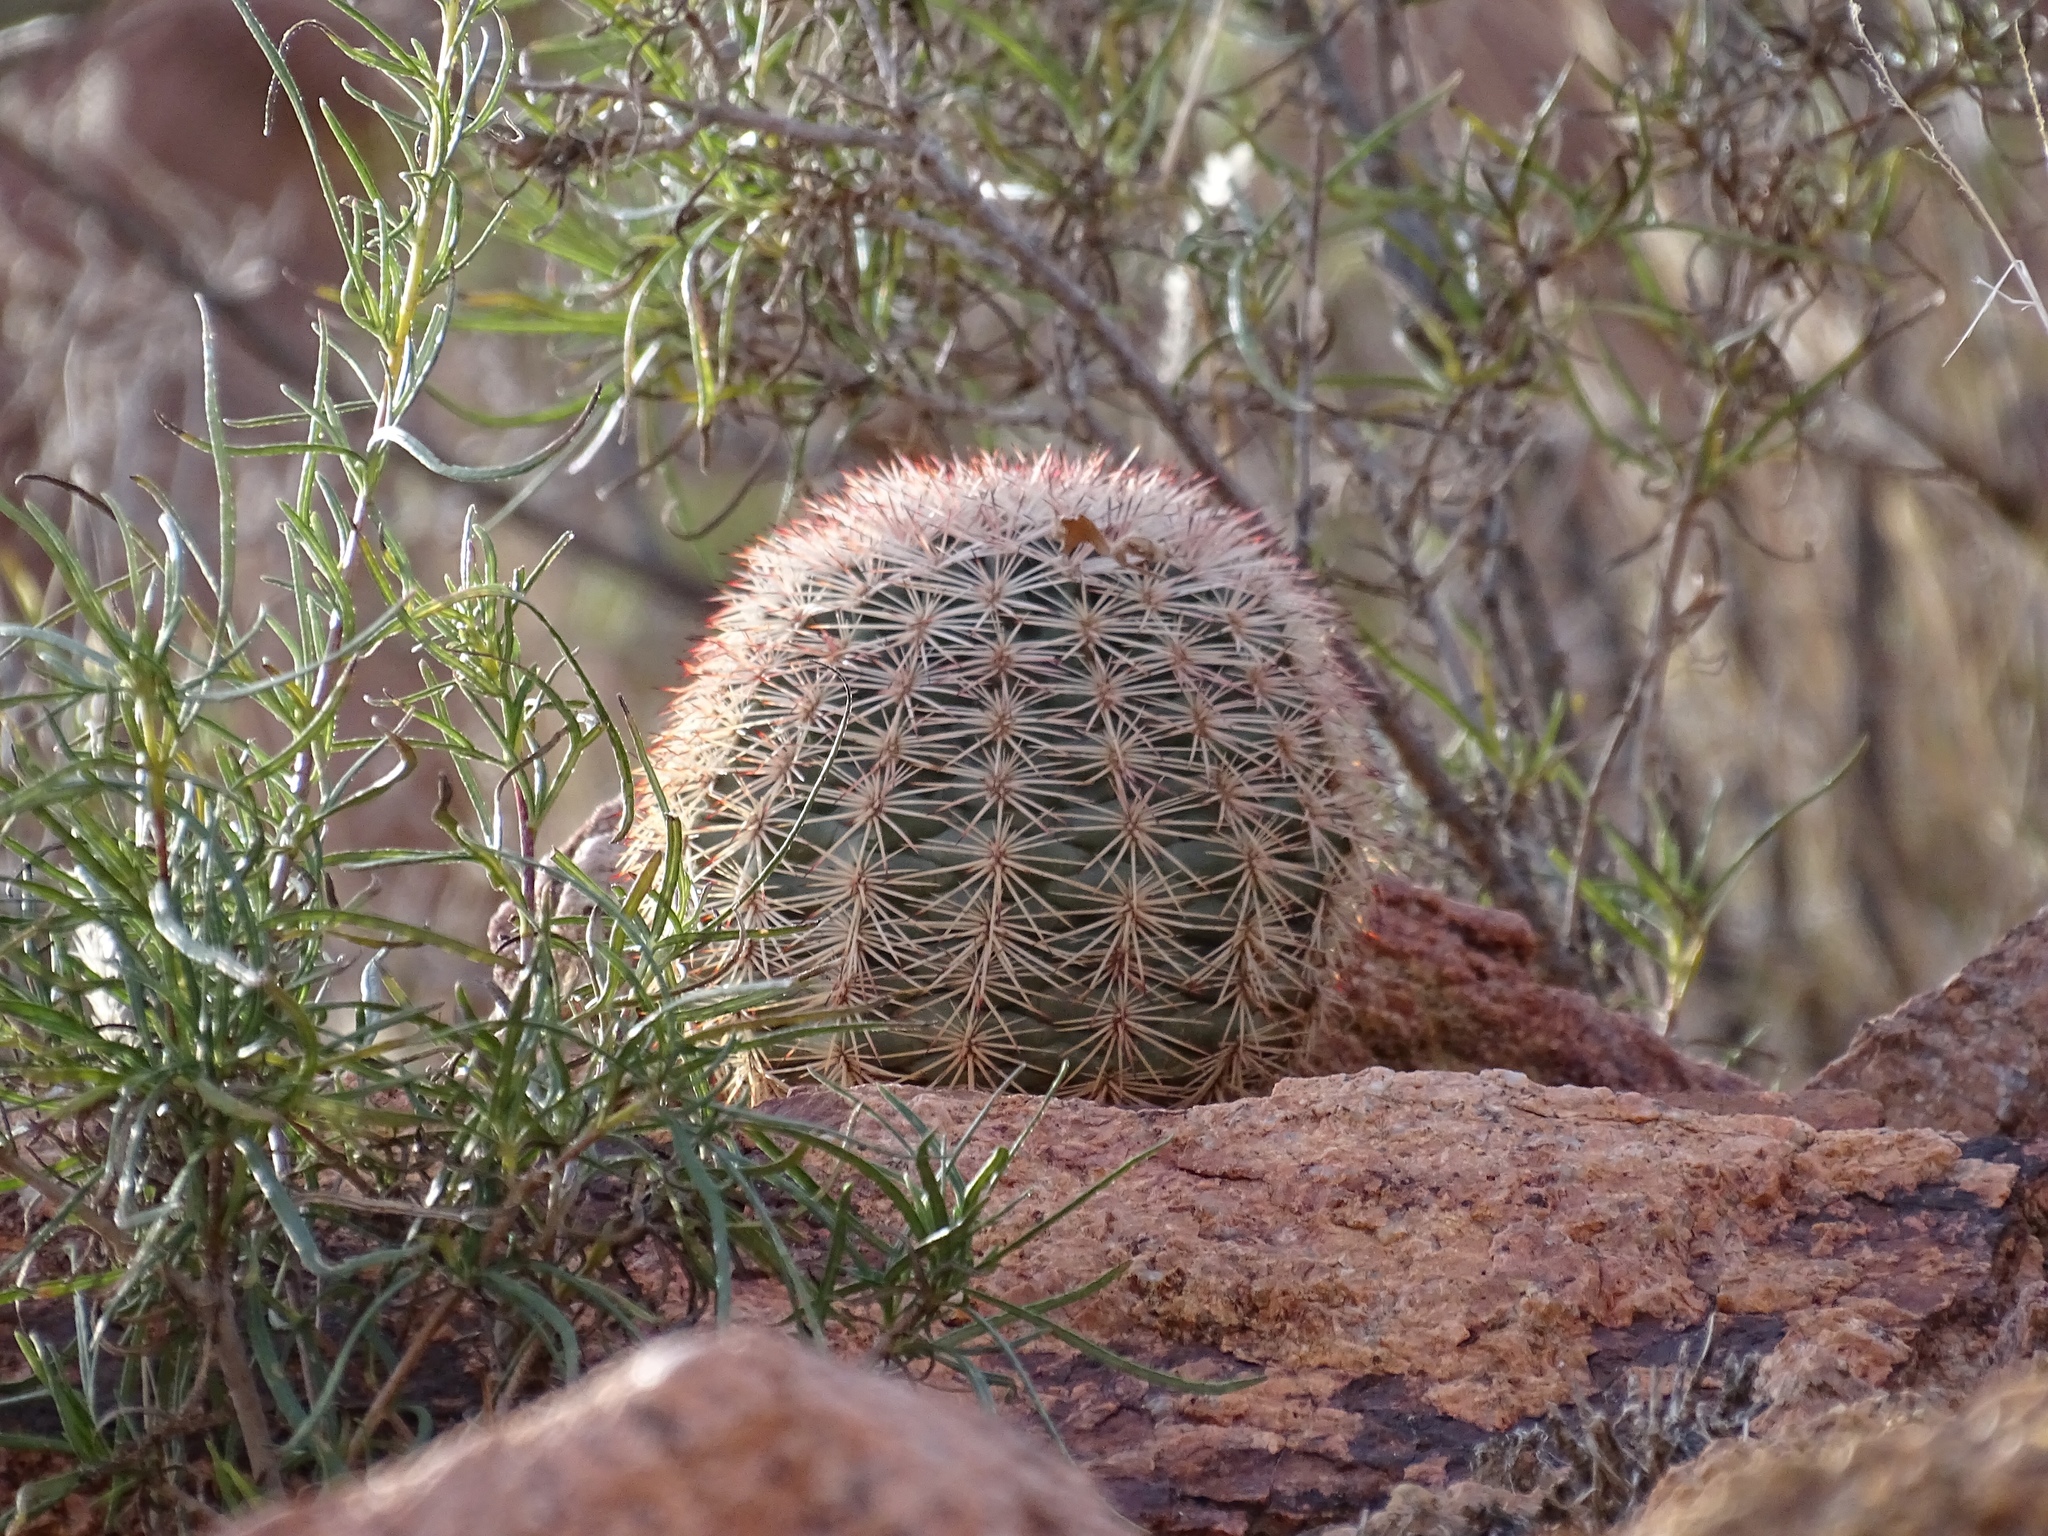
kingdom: Plantae
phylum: Tracheophyta
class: Magnoliopsida
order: Caryophyllales
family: Cactaceae
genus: Echinocereus
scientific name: Echinocereus dasyacanthus
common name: Spiny hedgehog cactus
